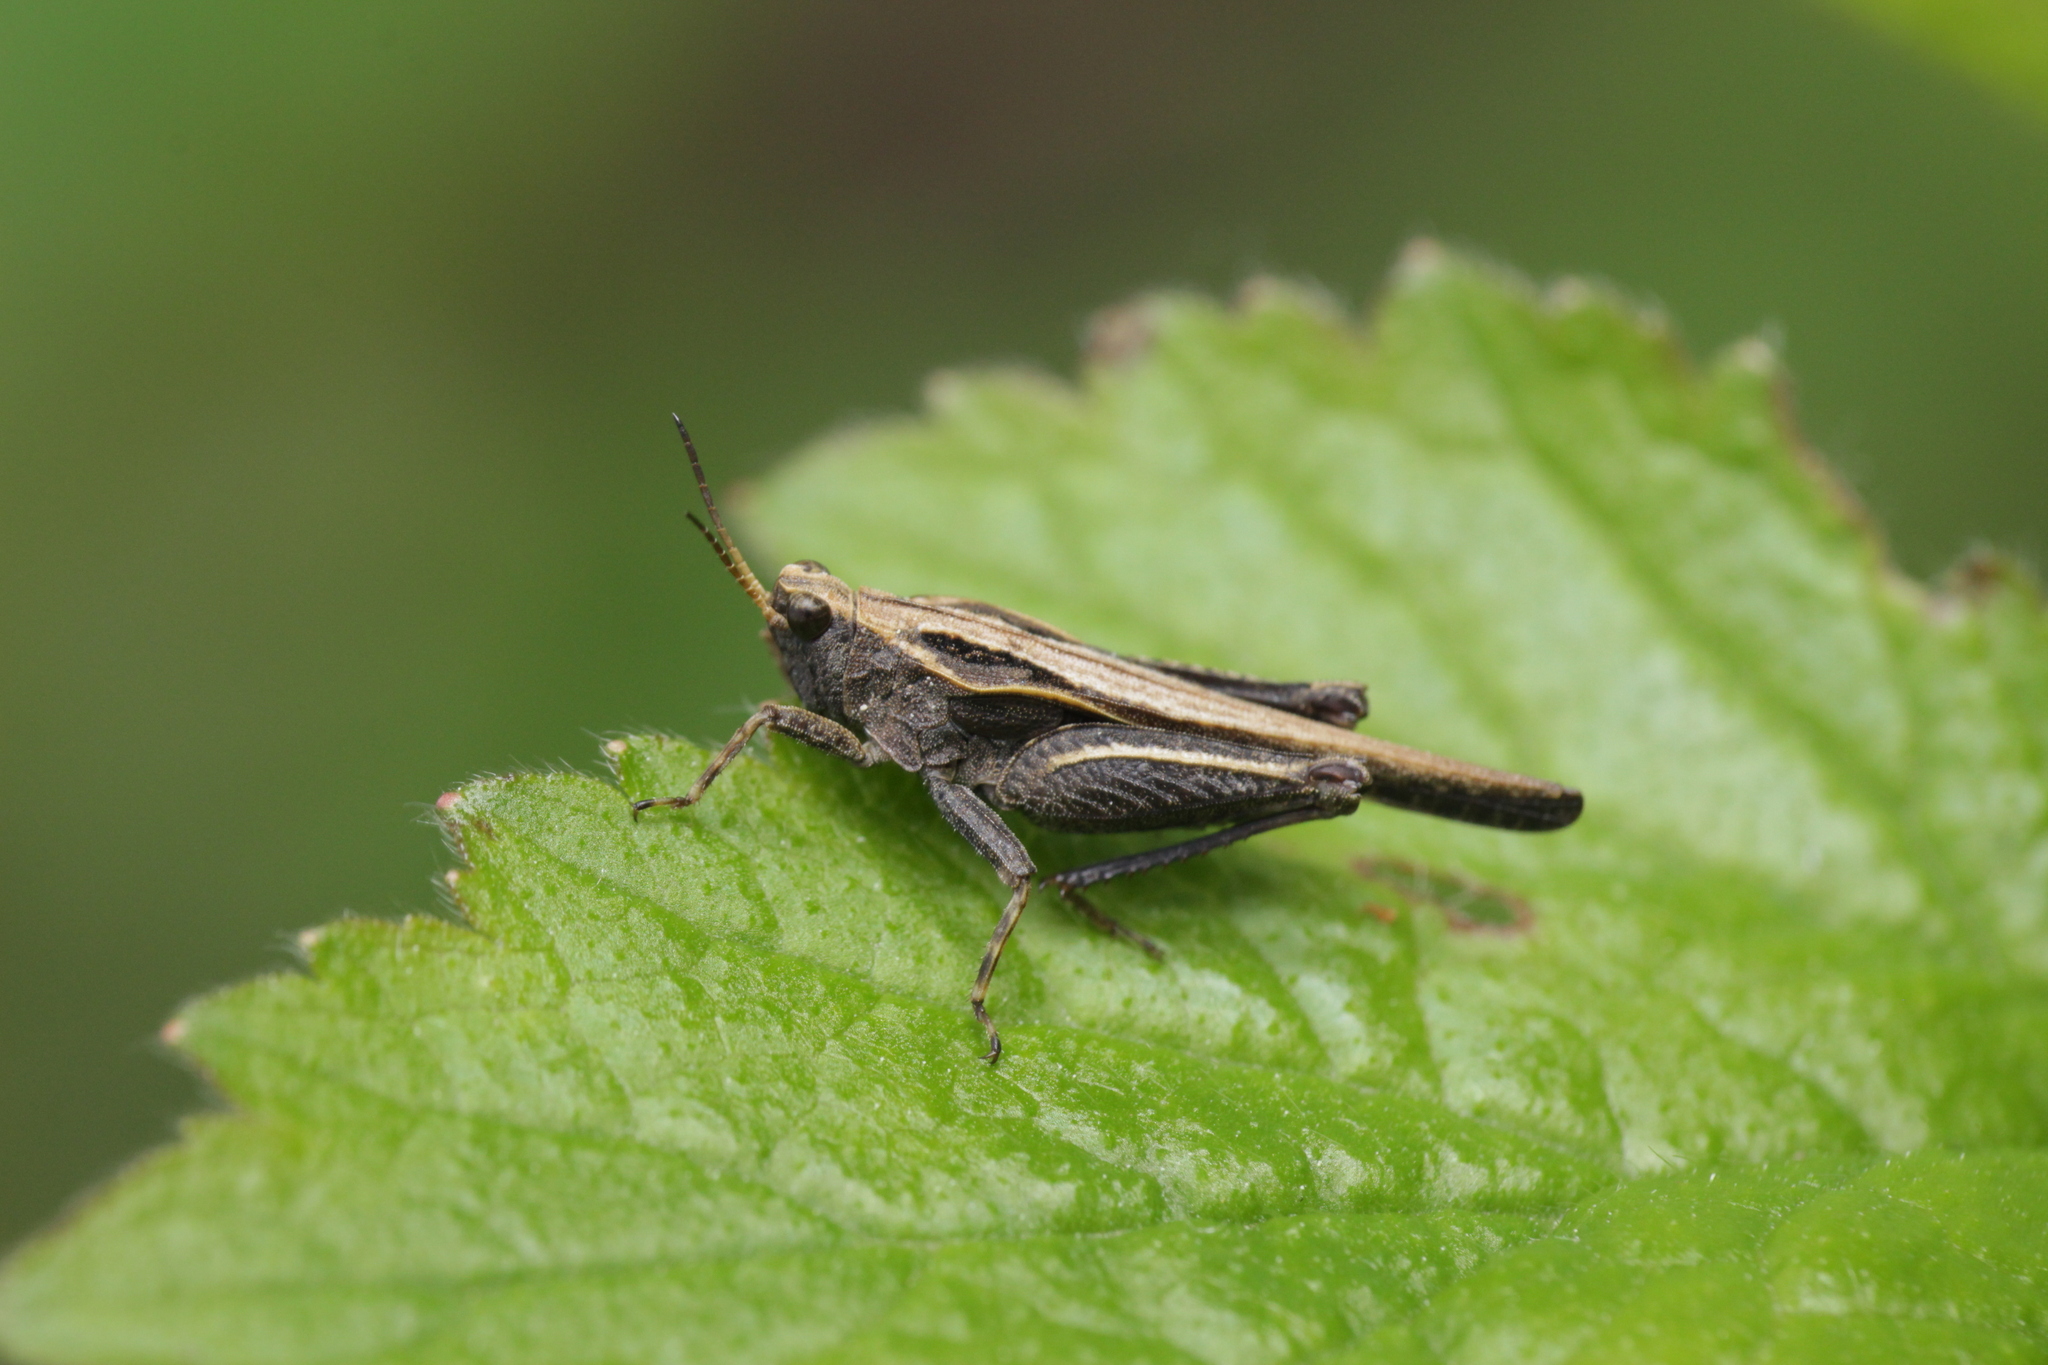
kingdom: Animalia
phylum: Arthropoda
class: Insecta
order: Orthoptera
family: Tetrigidae
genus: Tetrix
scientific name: Tetrix subulata
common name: Slender ground-hopper
